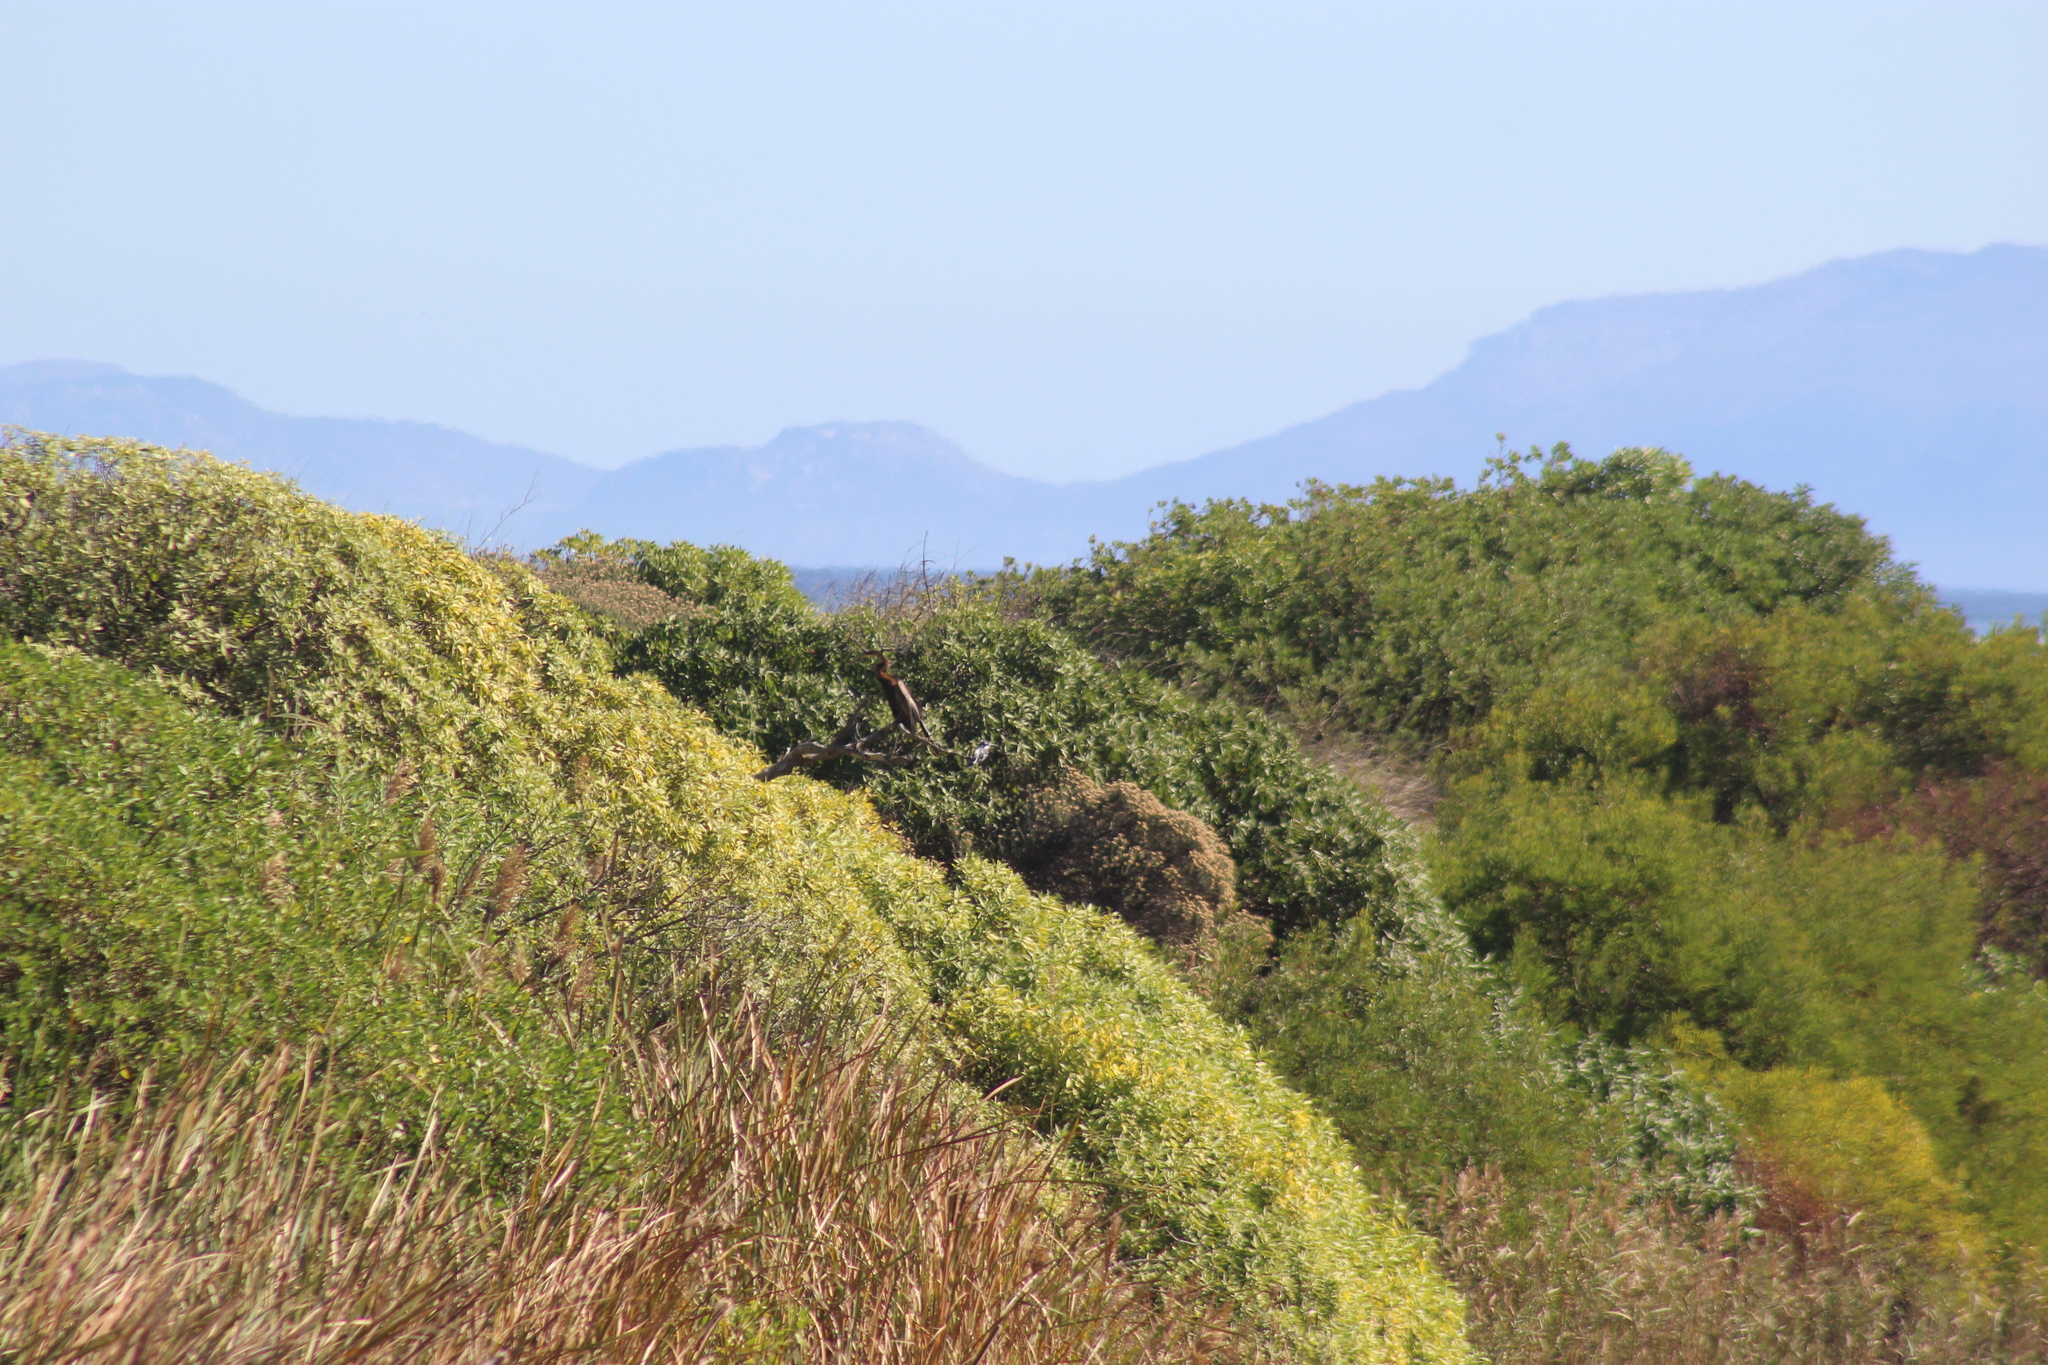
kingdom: Animalia
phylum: Chordata
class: Aves
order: Suliformes
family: Anhingidae
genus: Anhinga
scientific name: Anhinga rufa
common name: African darter
